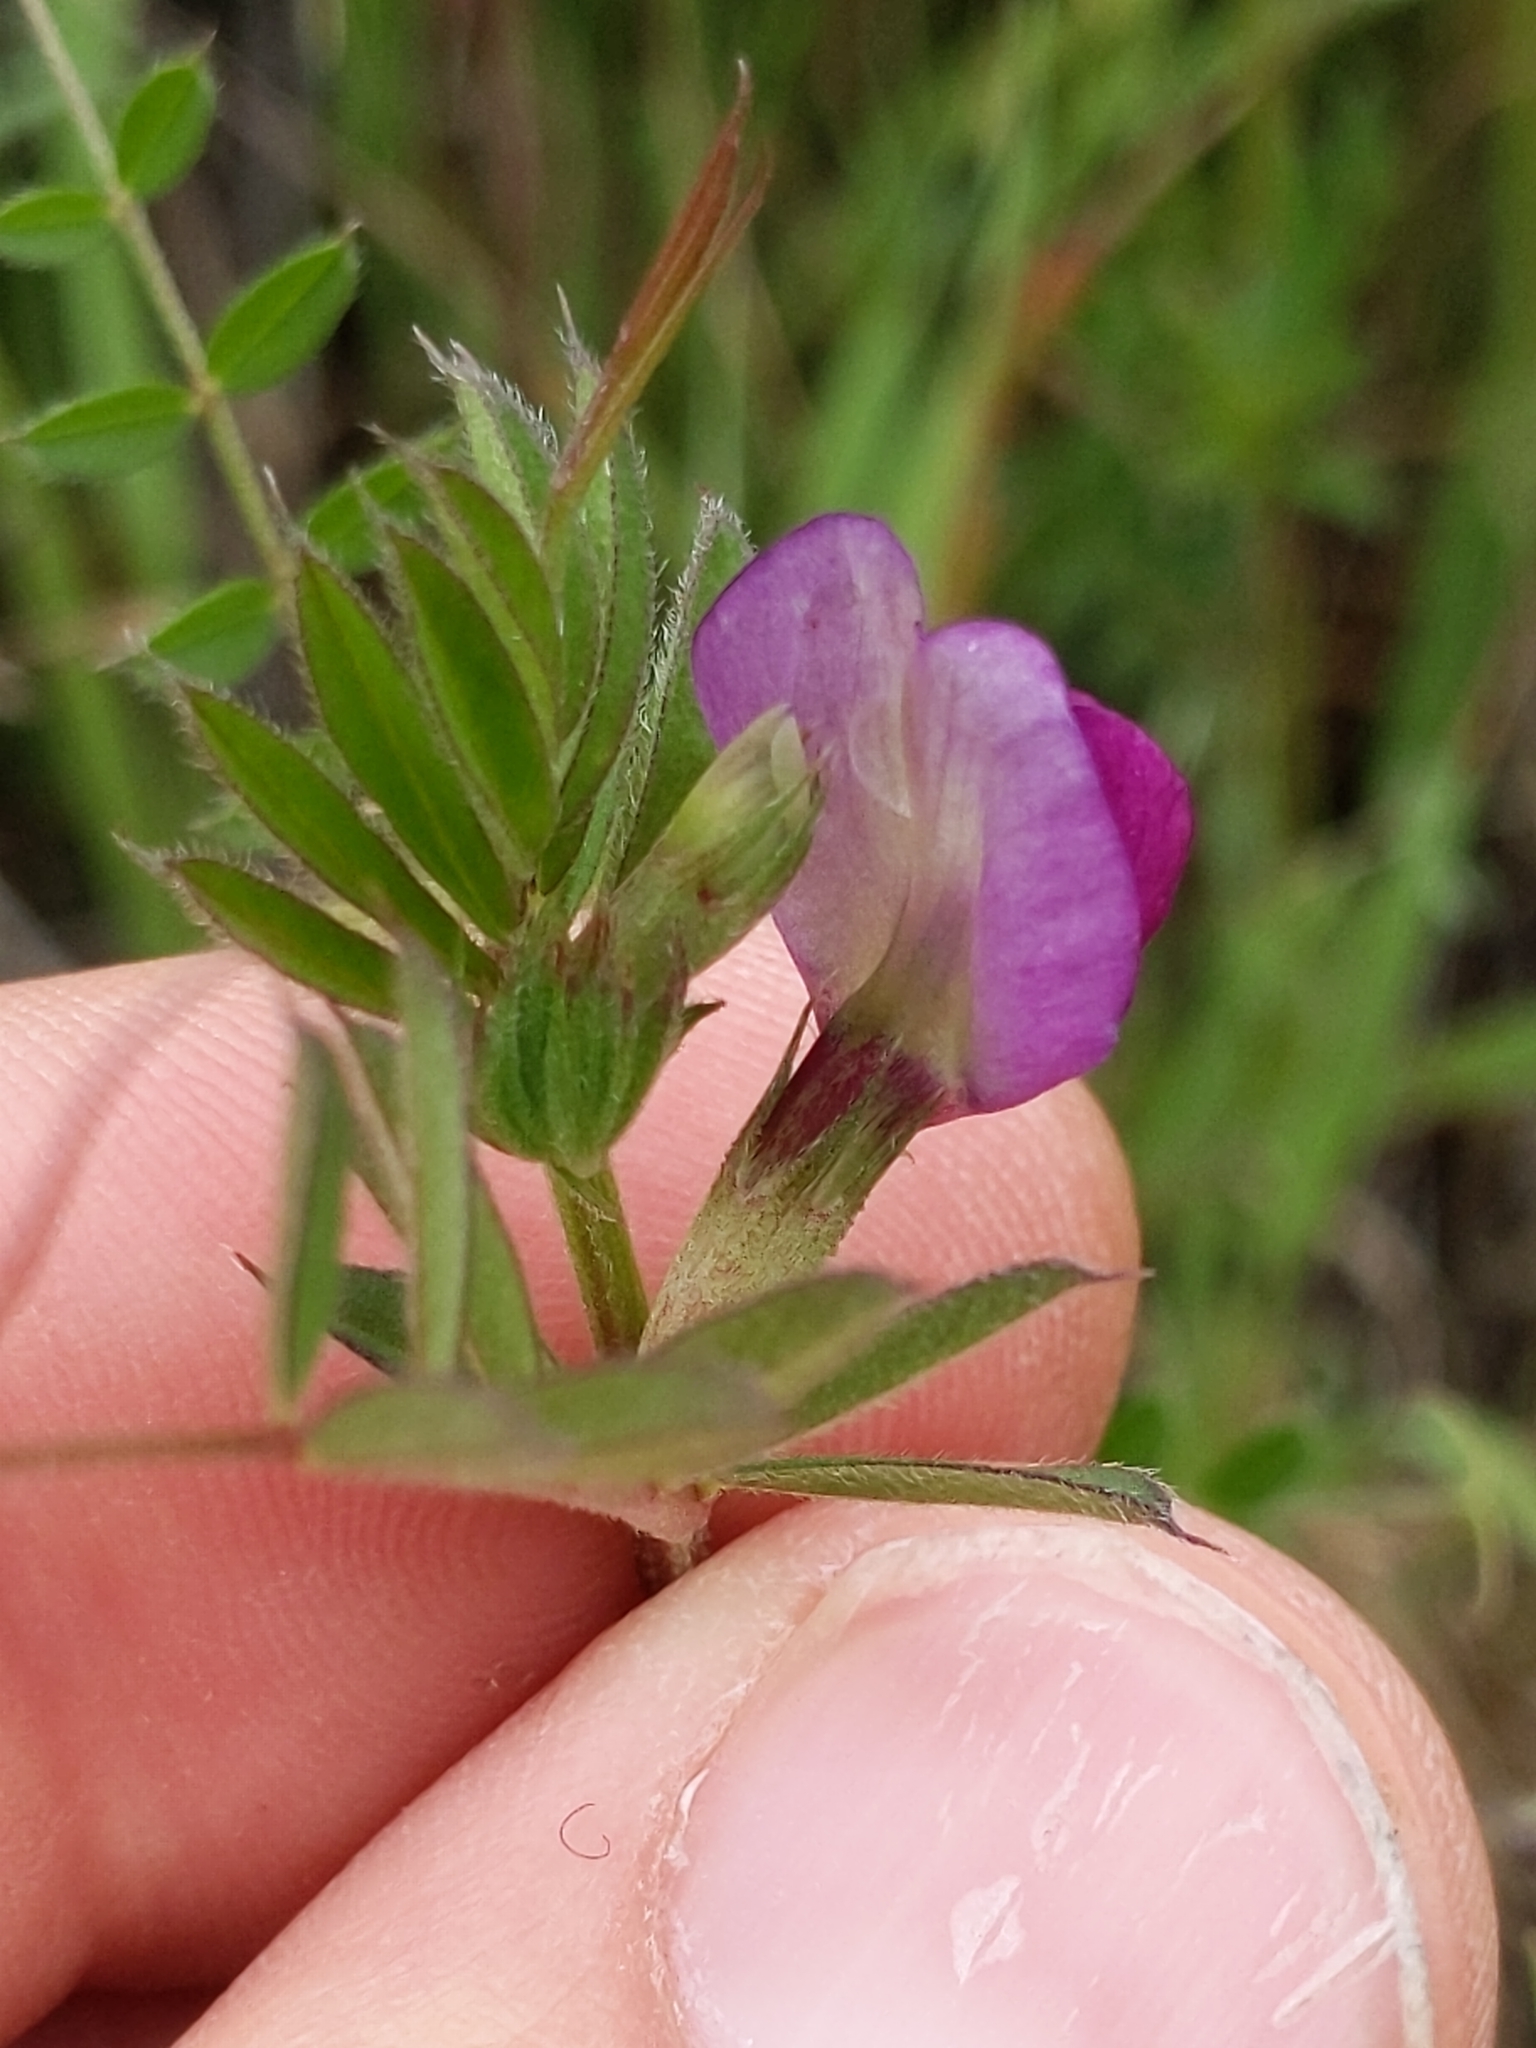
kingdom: Plantae
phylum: Tracheophyta
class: Magnoliopsida
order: Fabales
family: Fabaceae
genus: Vicia
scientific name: Vicia sativa
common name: Garden vetch
